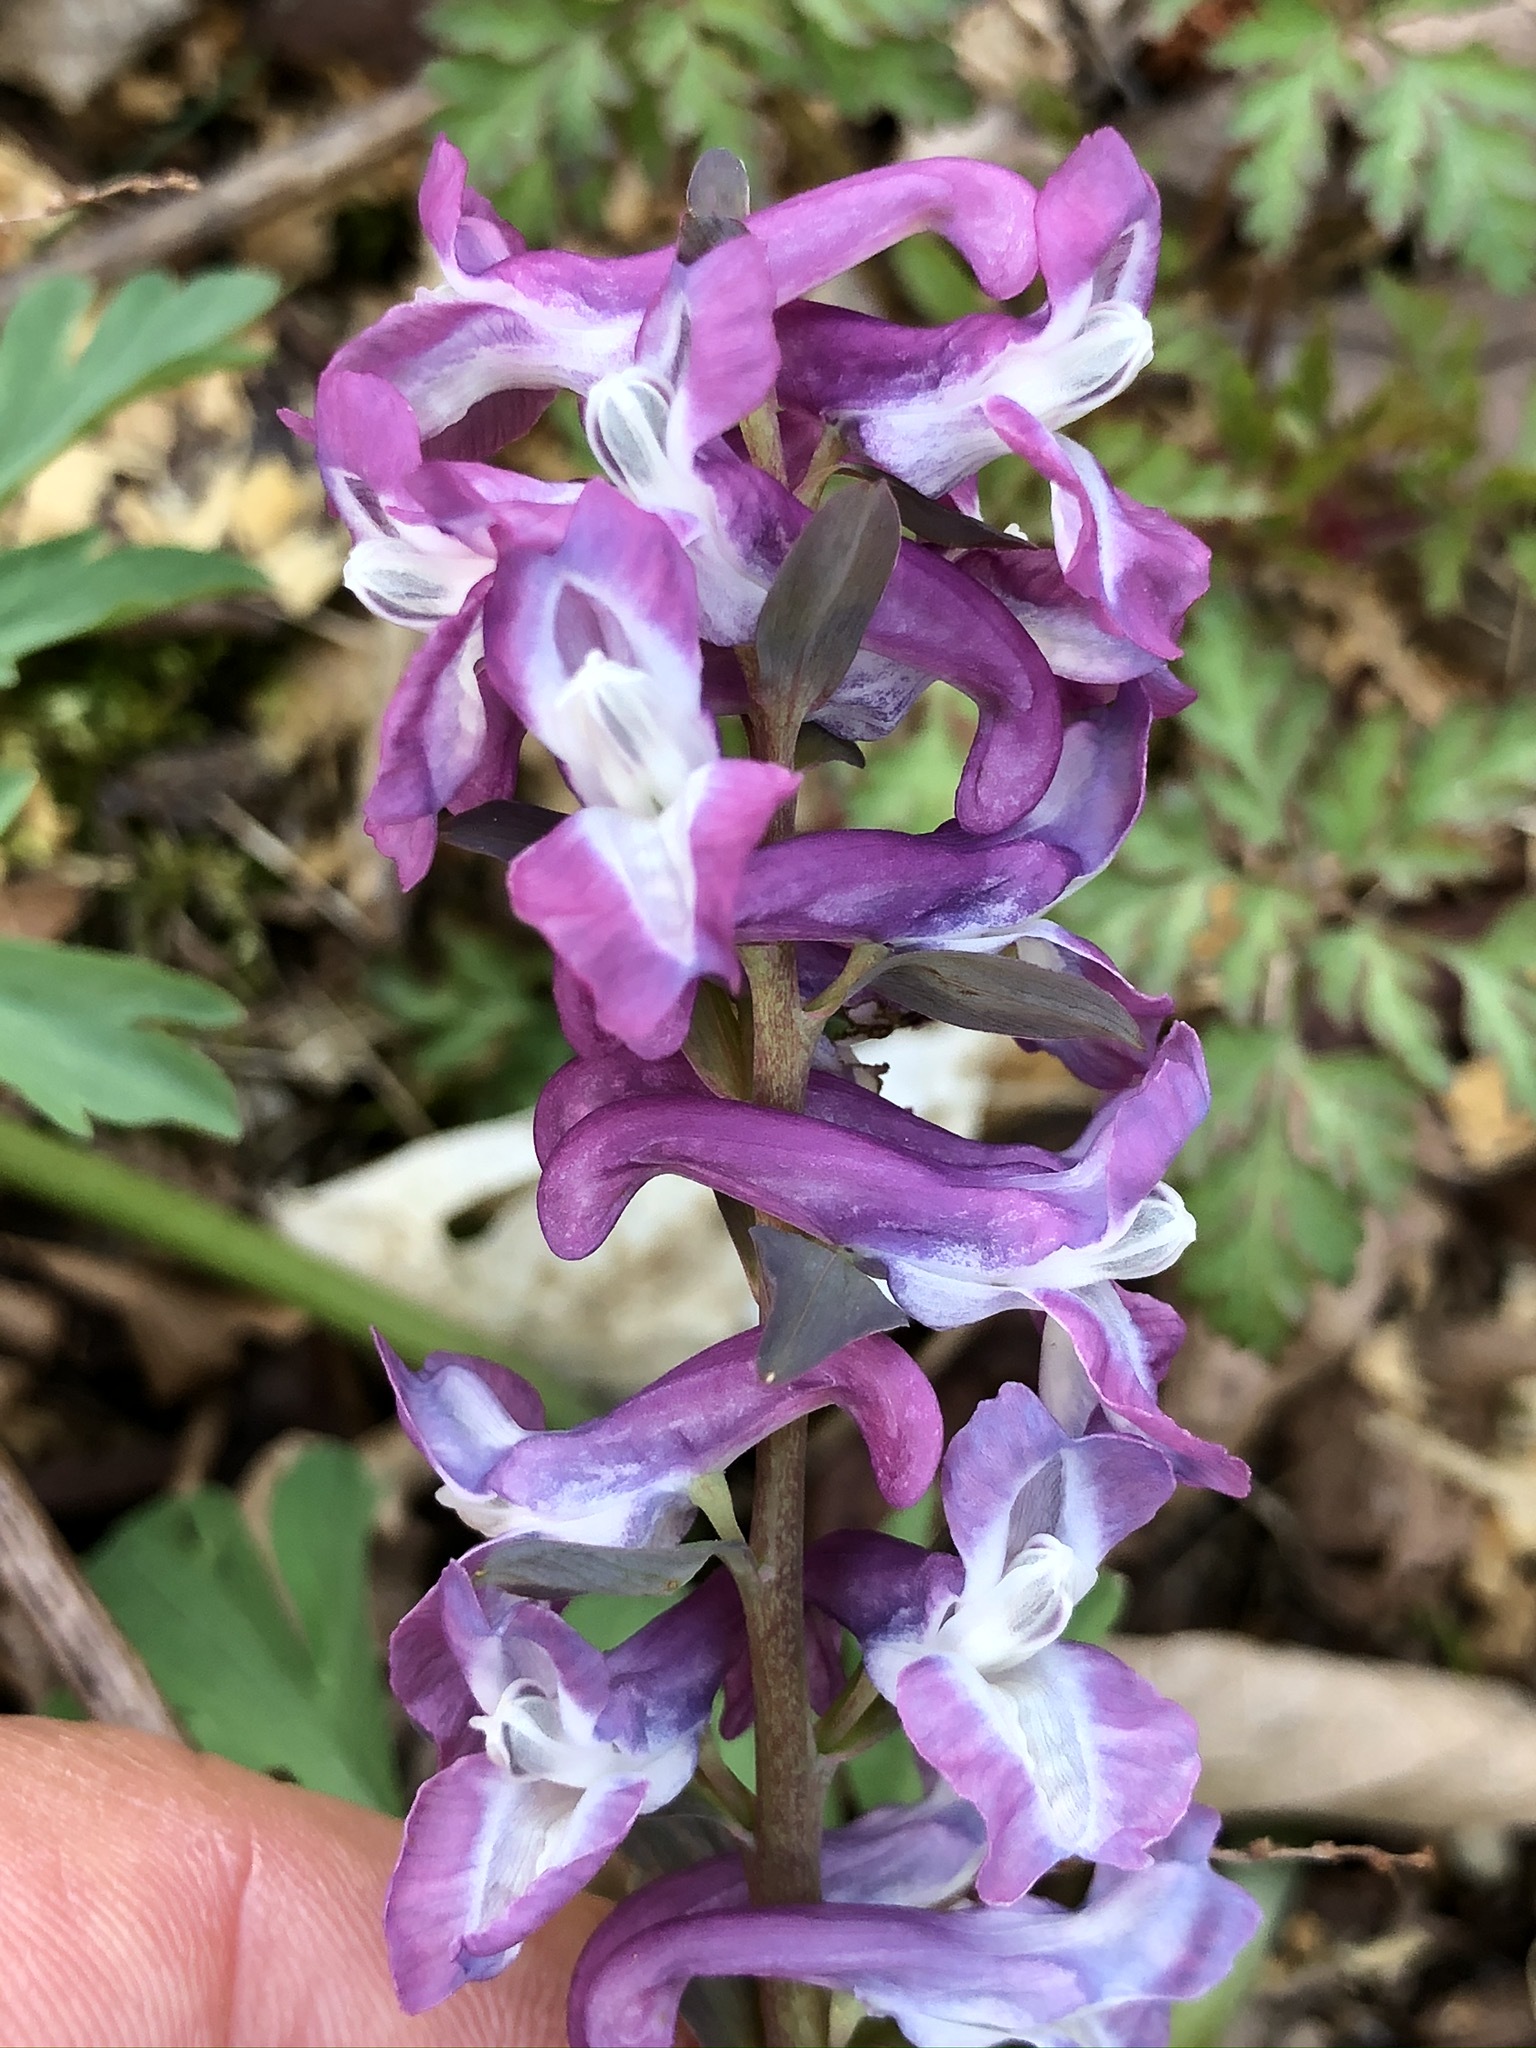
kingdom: Plantae
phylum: Tracheophyta
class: Magnoliopsida
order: Ranunculales
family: Papaveraceae
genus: Corydalis
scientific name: Corydalis cava
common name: Hollowroot
